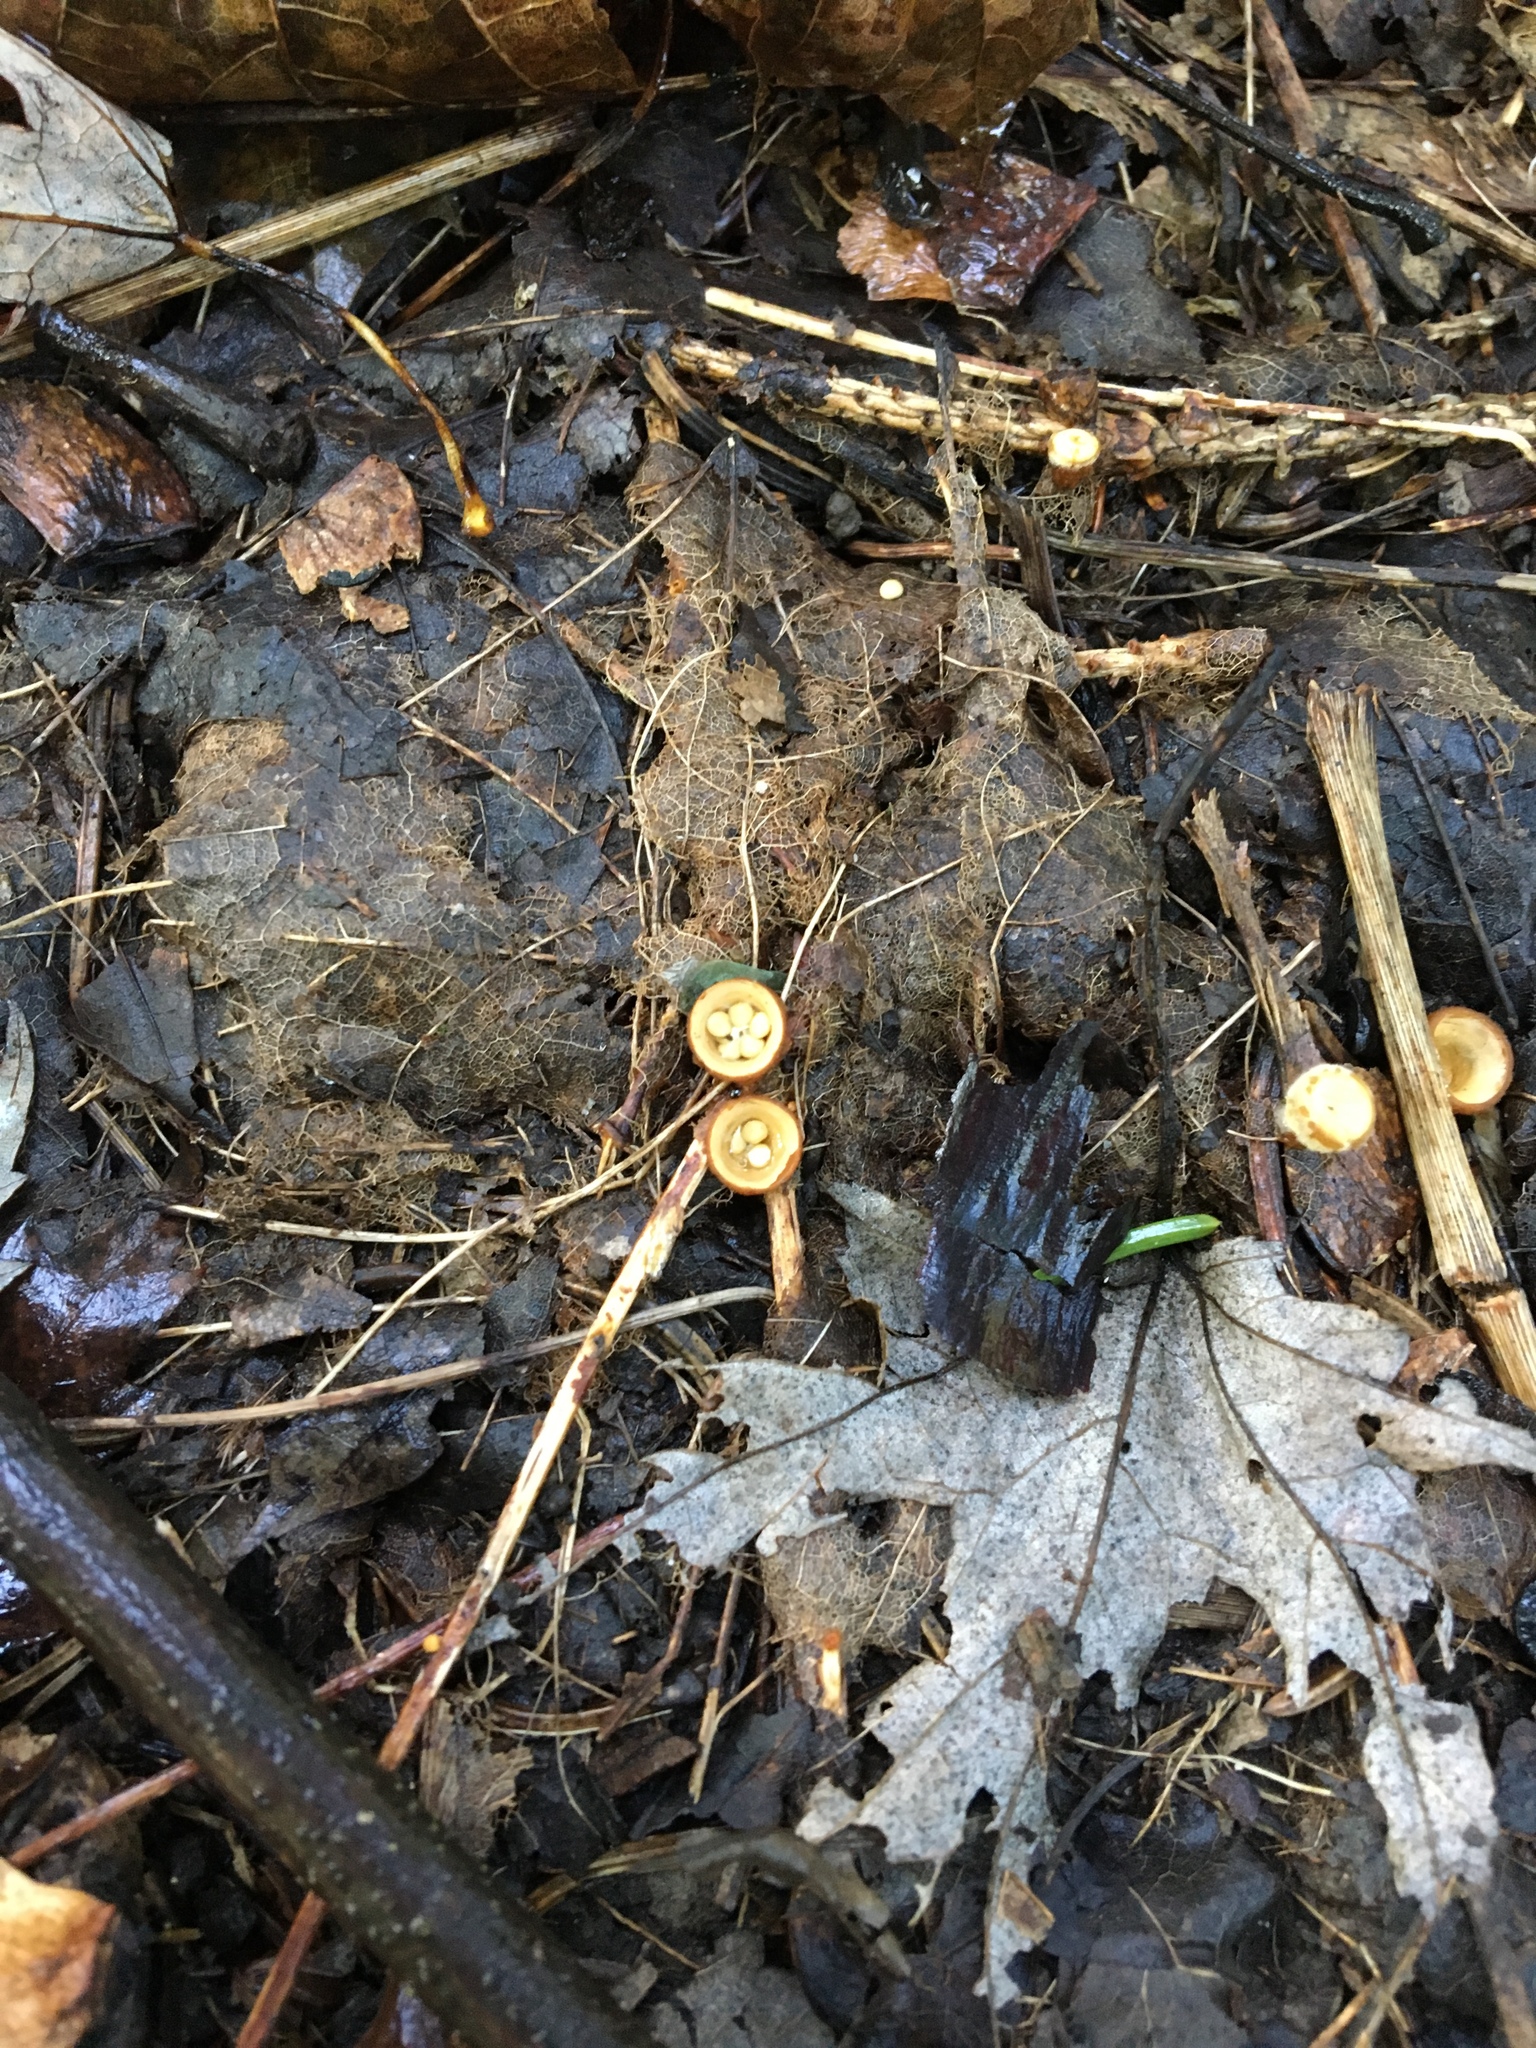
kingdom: Fungi
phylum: Basidiomycota
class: Agaricomycetes
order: Agaricales
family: Nidulariaceae
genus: Crucibulum
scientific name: Crucibulum laeve
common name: Common bird's nest
